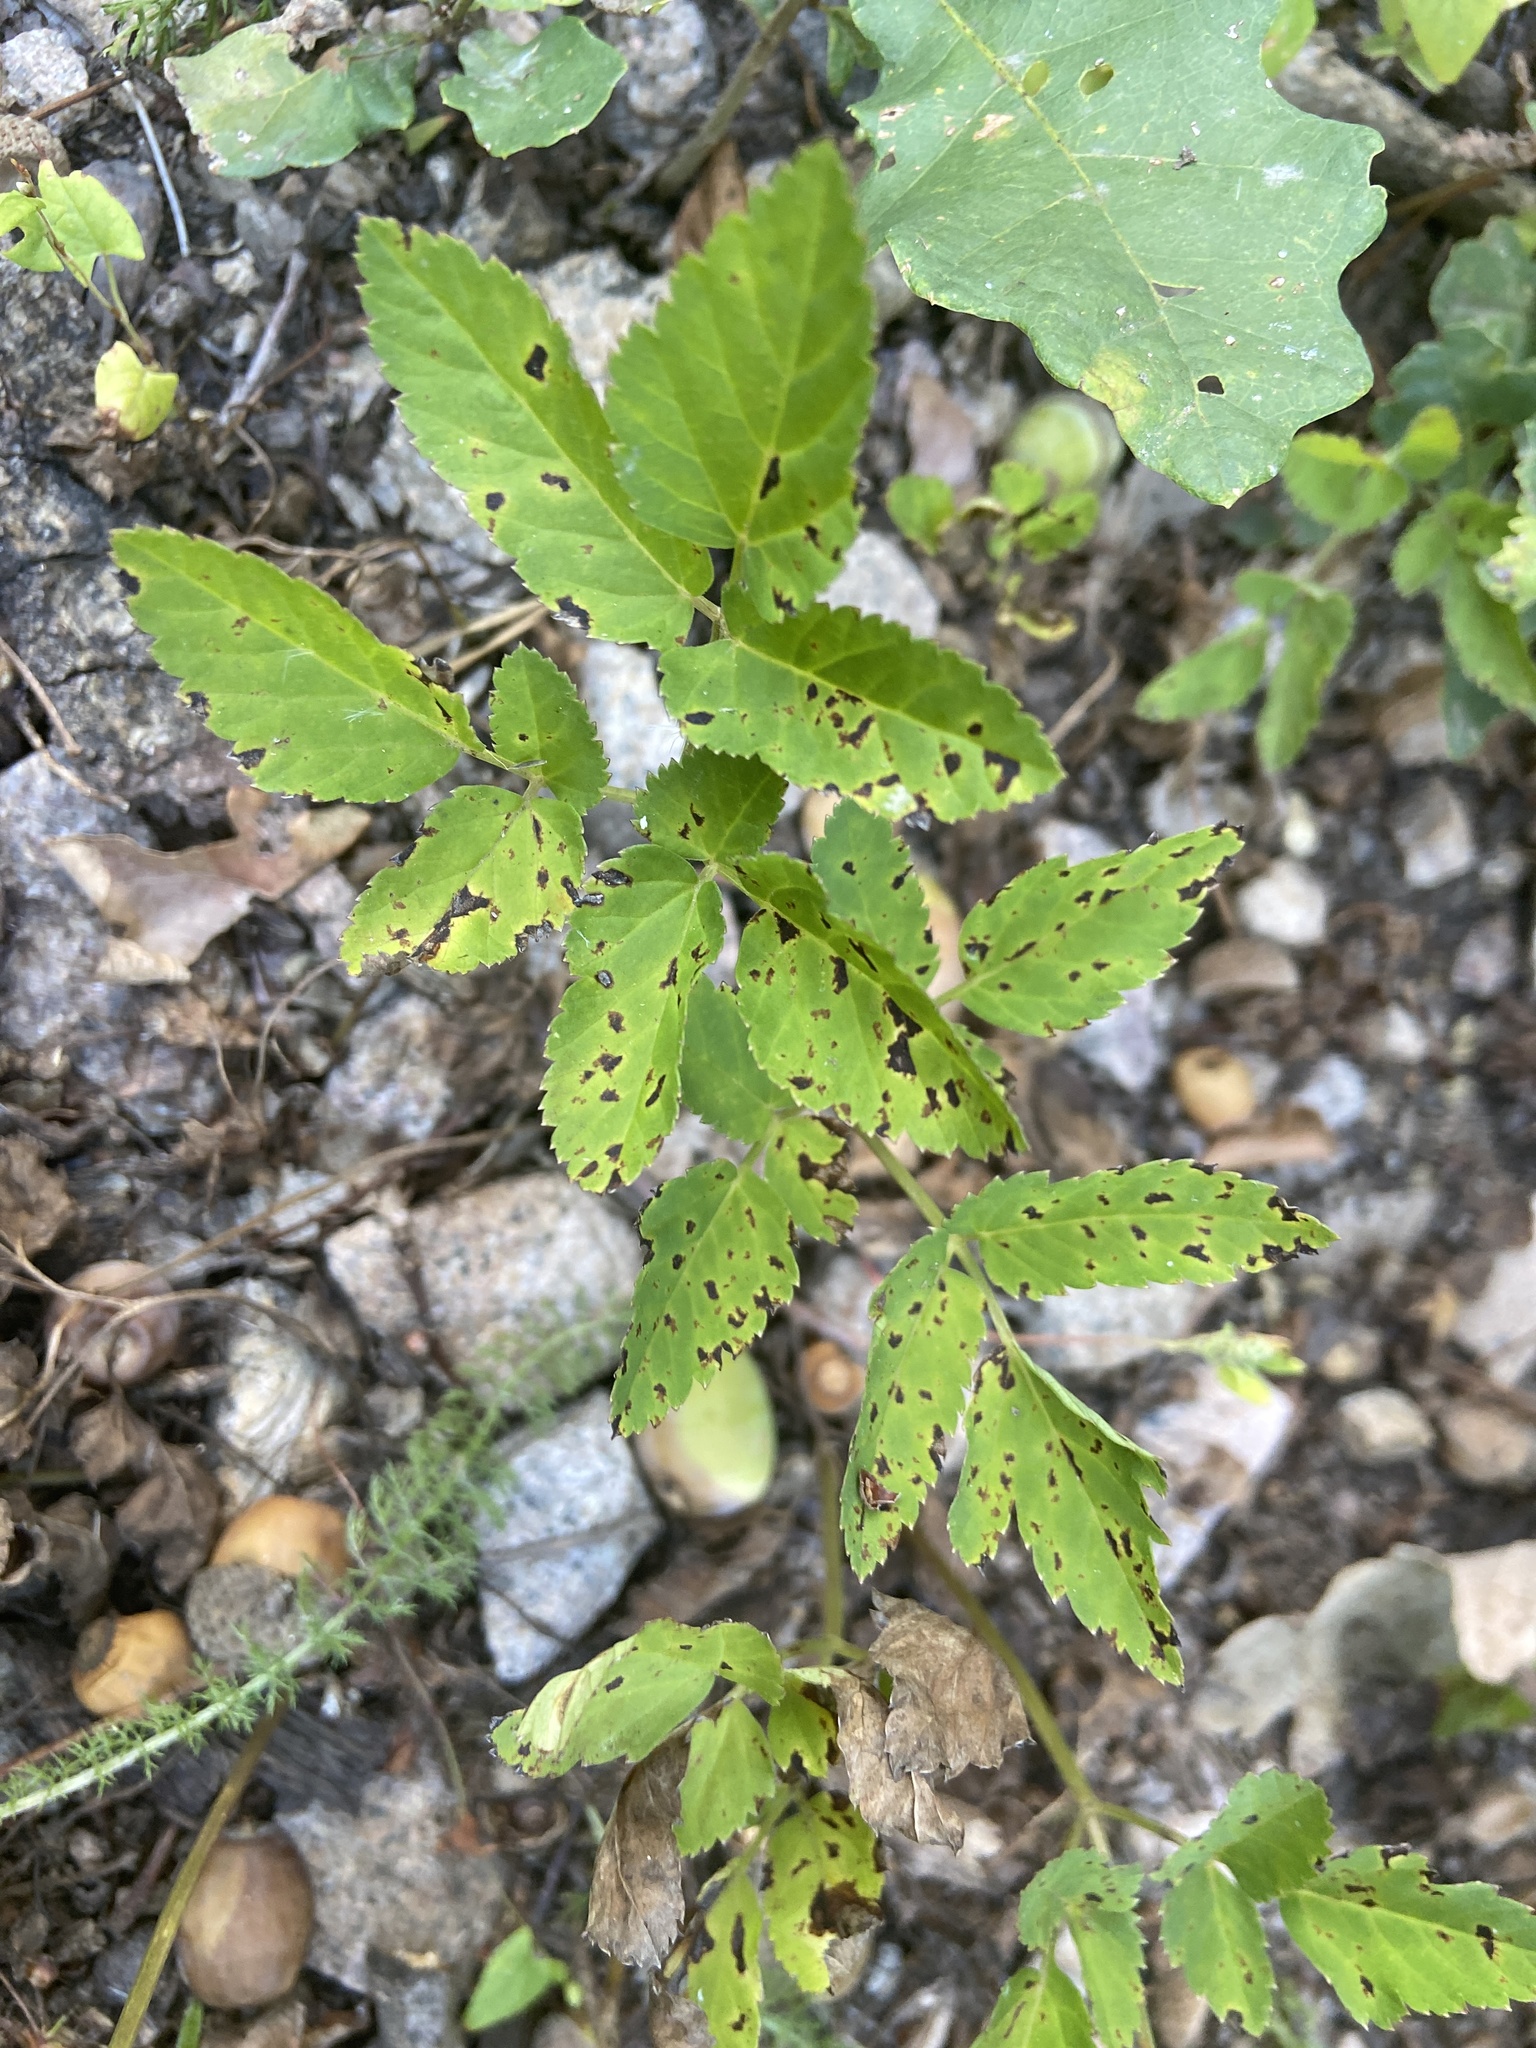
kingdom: Plantae
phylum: Tracheophyta
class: Magnoliopsida
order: Apiales
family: Apiaceae
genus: Aegopodium
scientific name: Aegopodium podagraria
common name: Ground-elder
